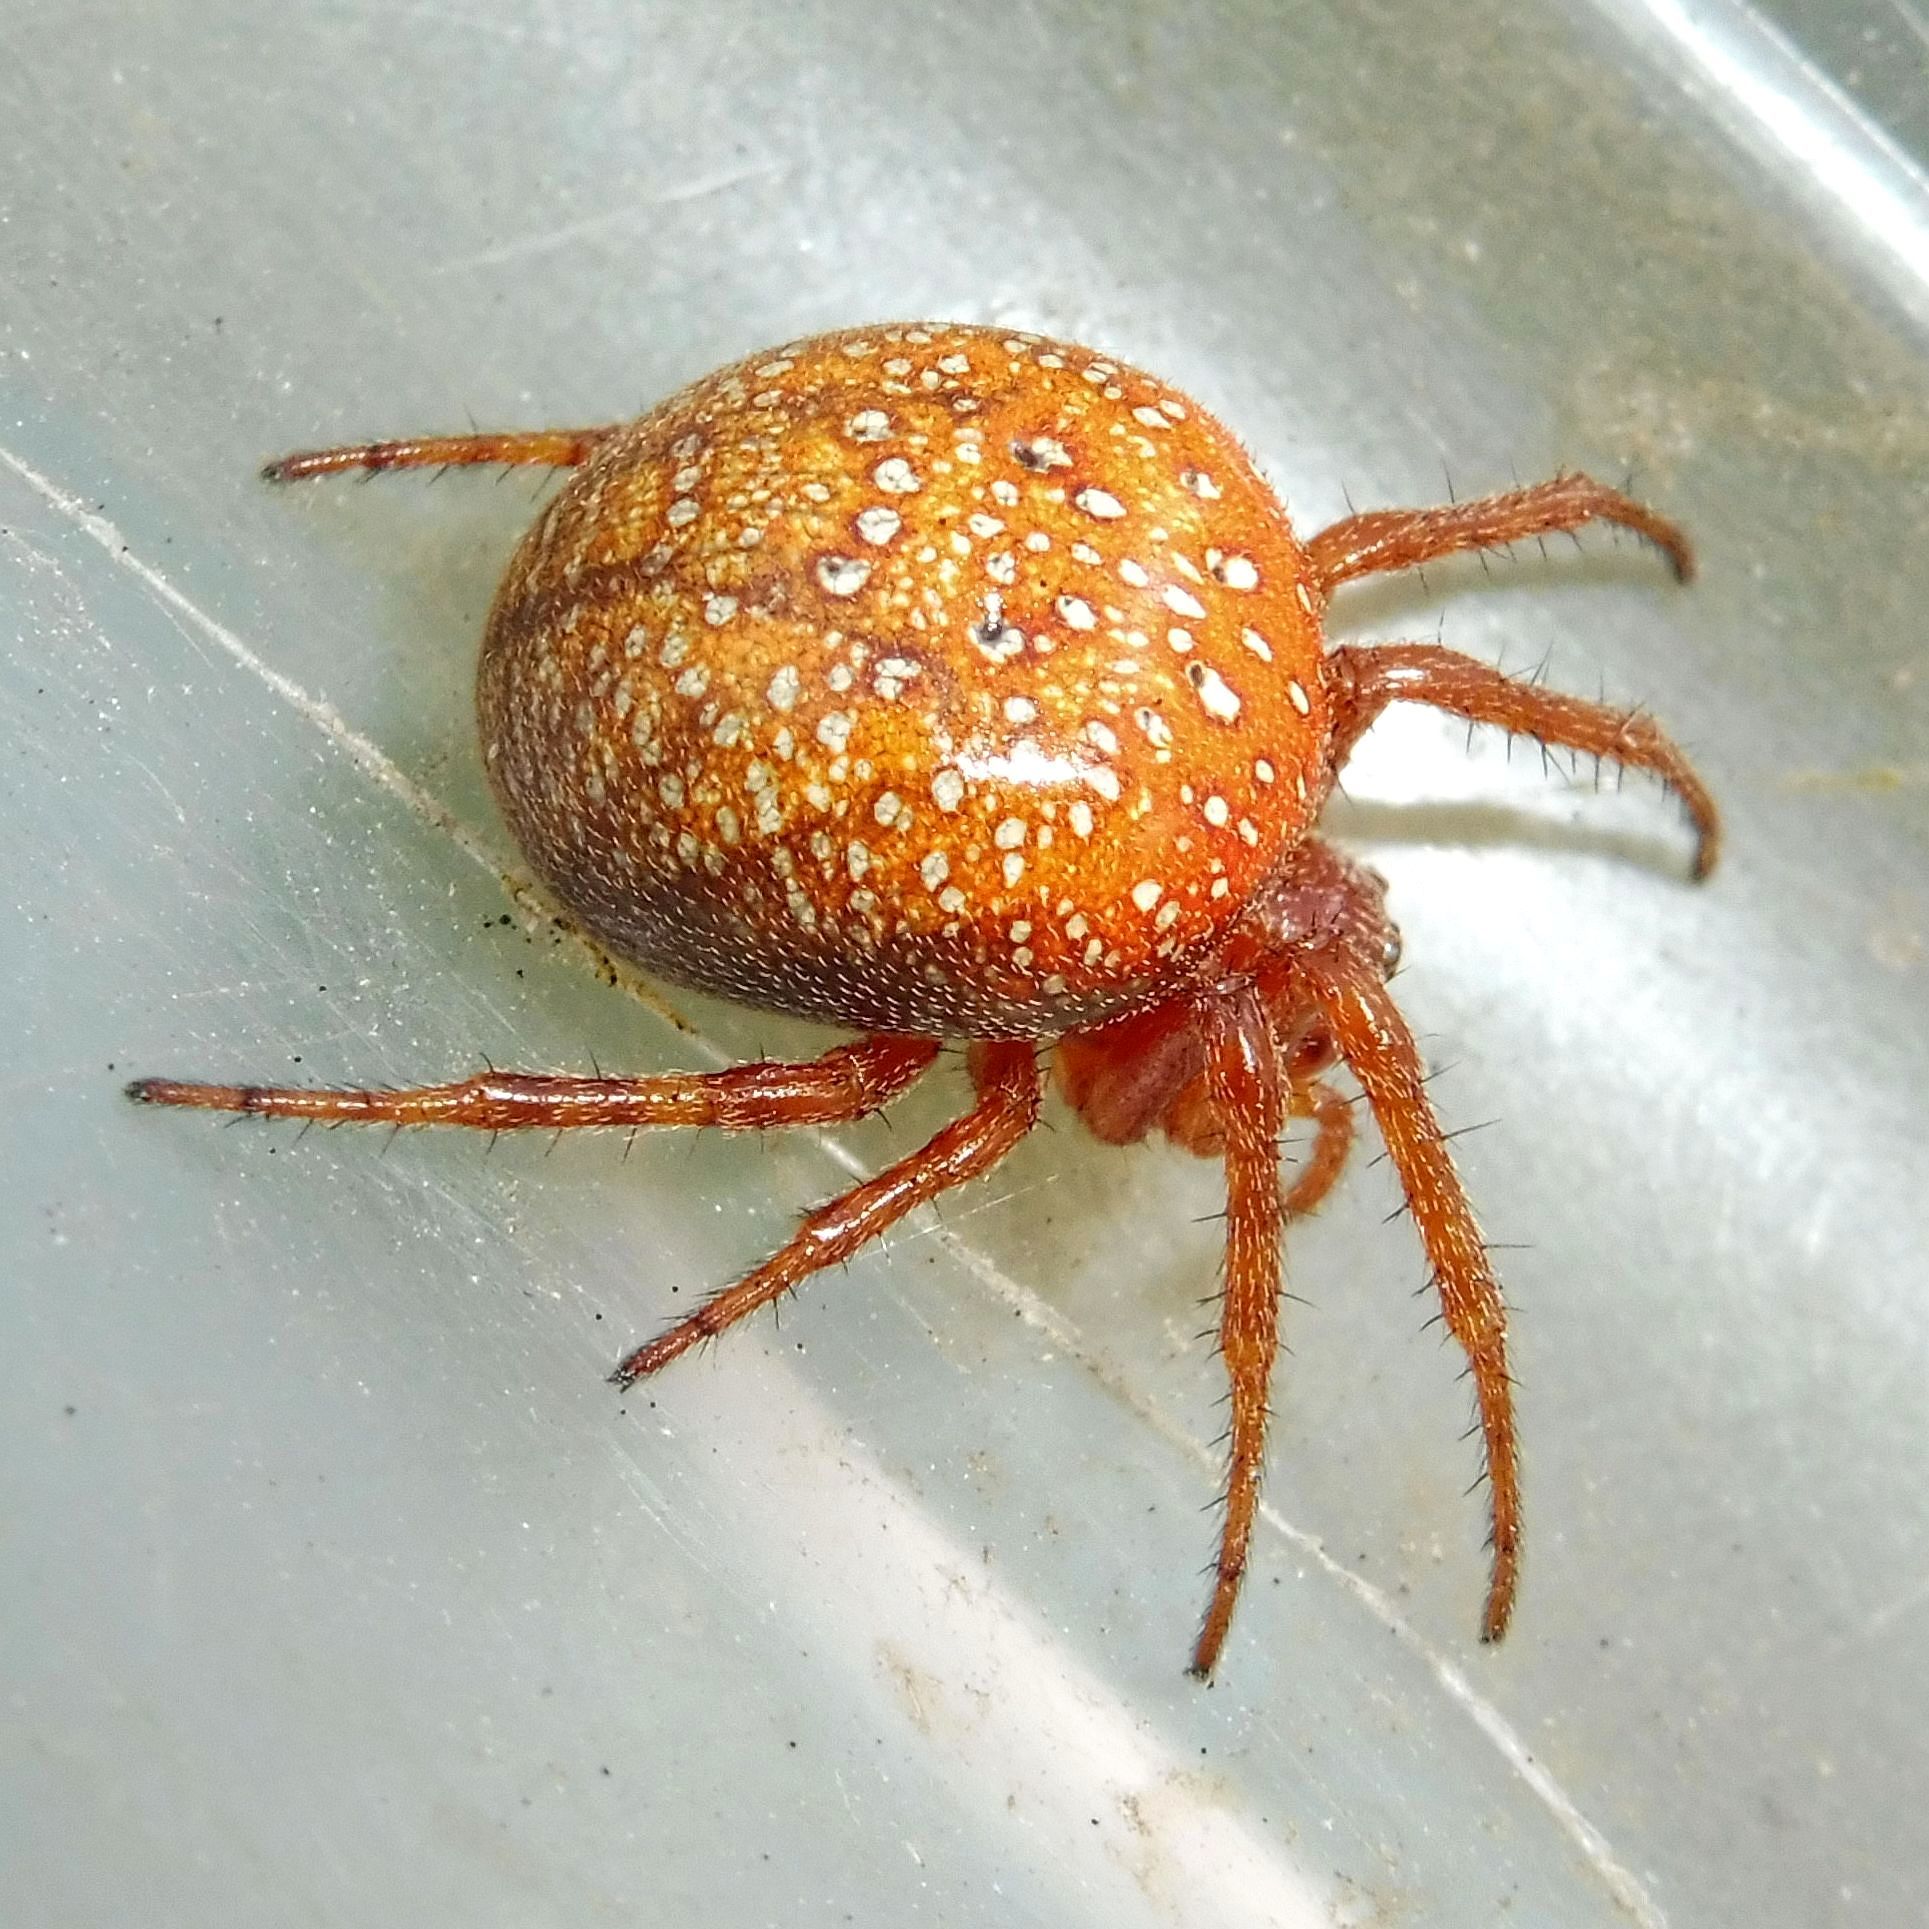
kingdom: Animalia
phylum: Arthropoda
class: Arachnida
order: Araneae
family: Araneidae
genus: Araneus
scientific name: Araneus alsine
